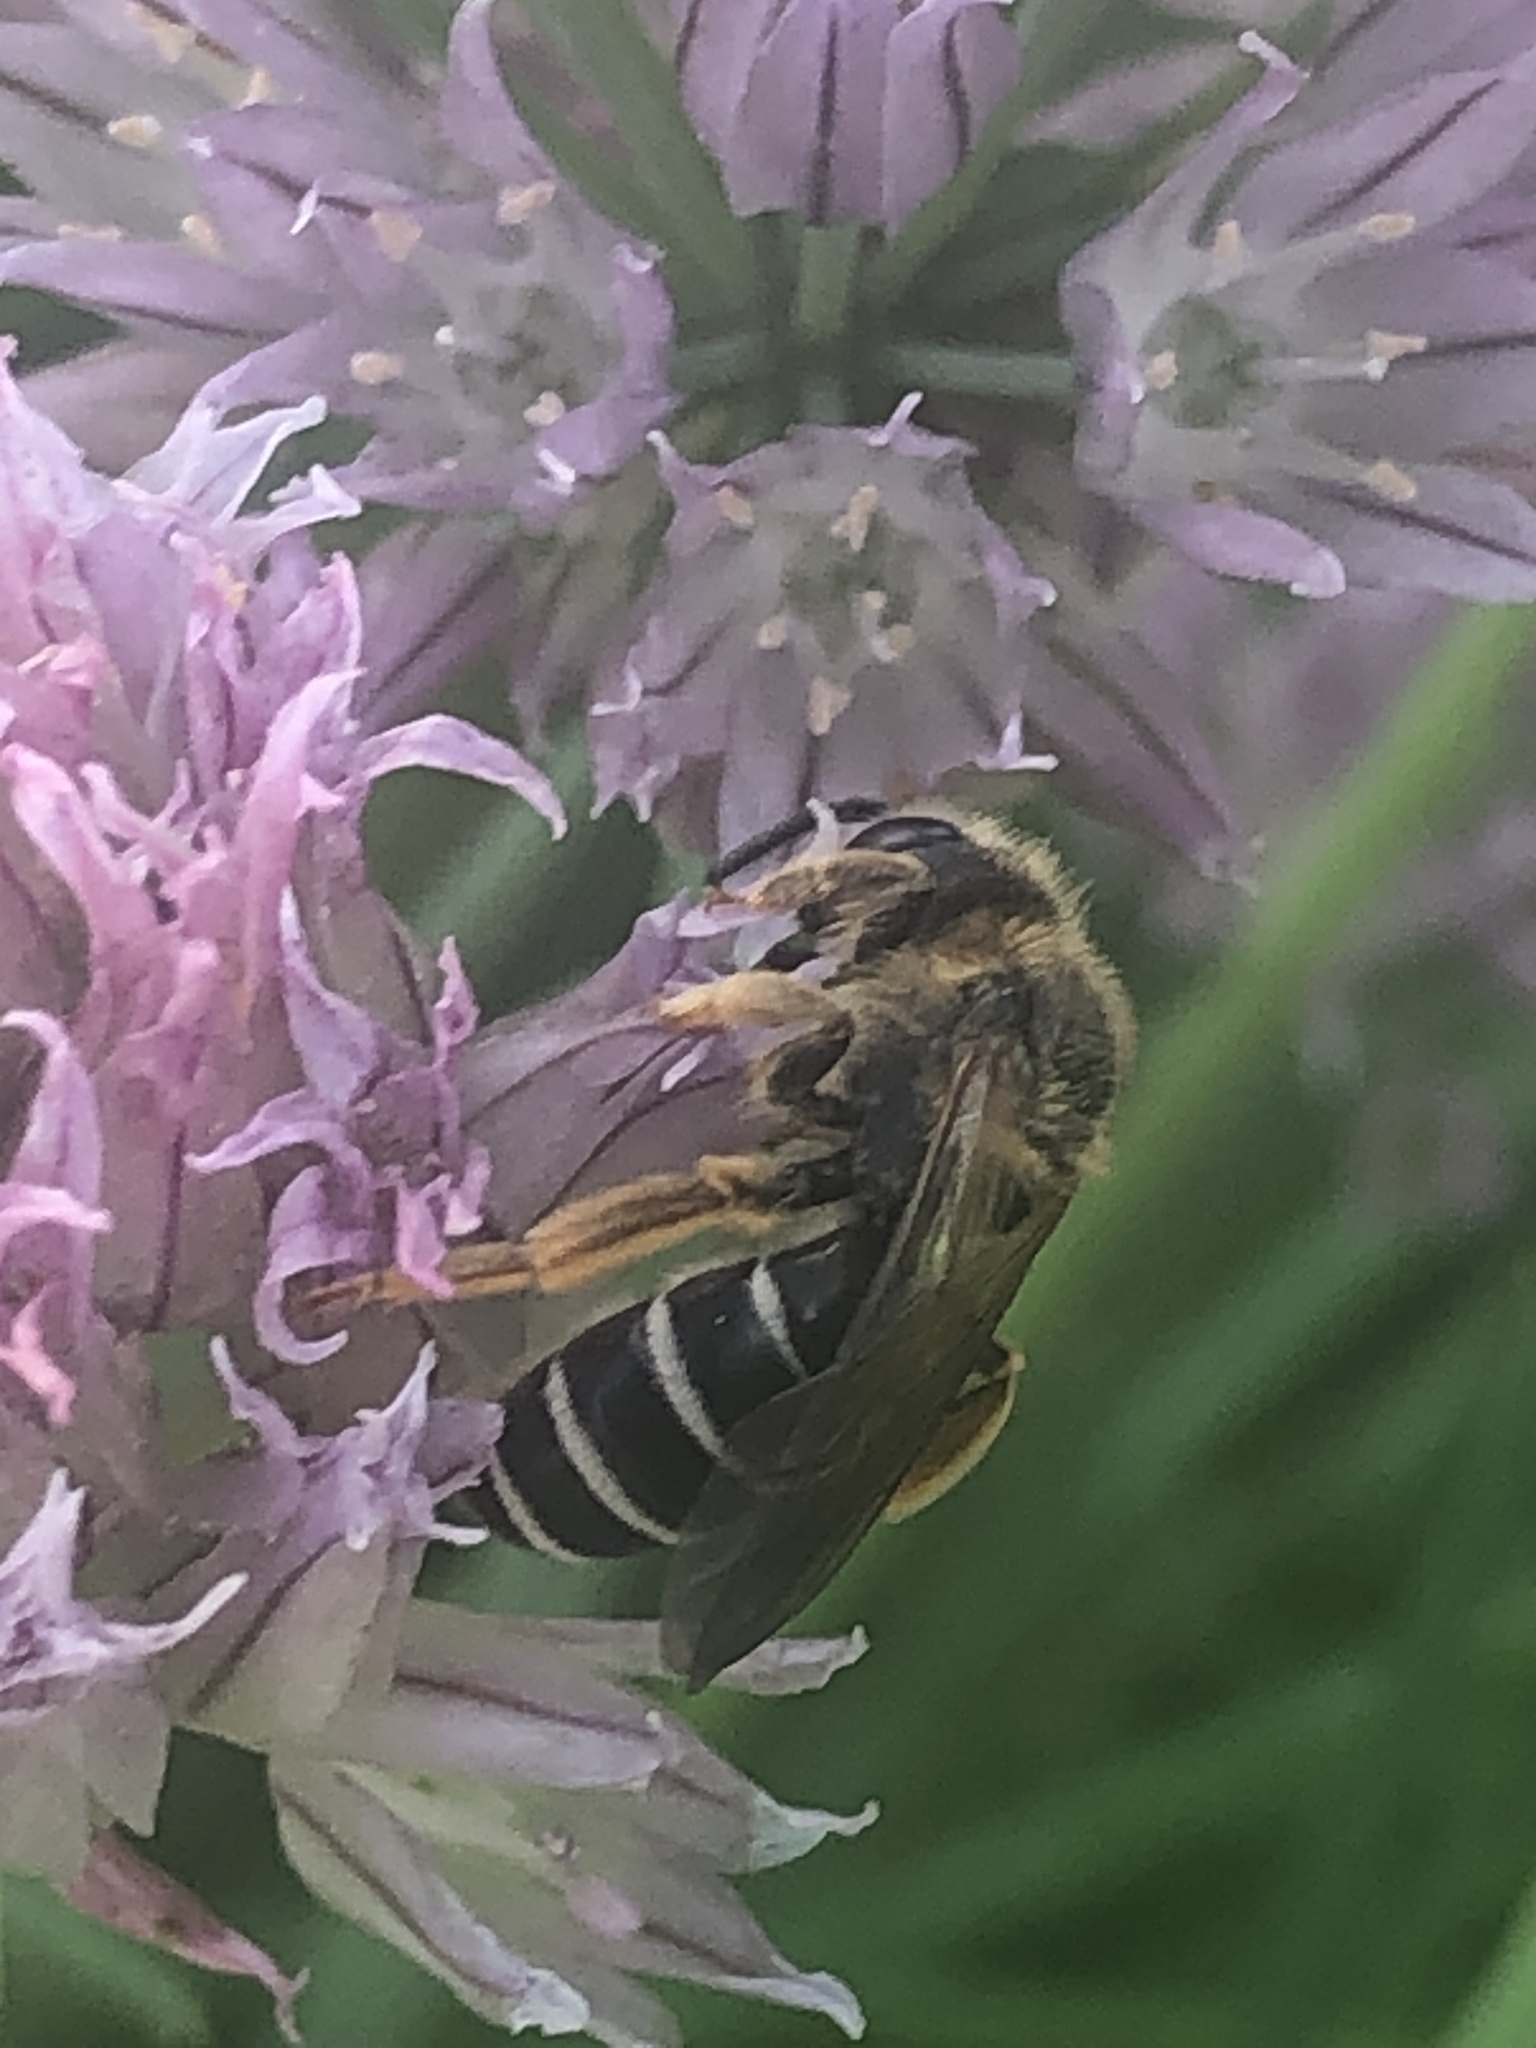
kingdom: Animalia
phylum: Arthropoda
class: Insecta
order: Hymenoptera
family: Halictidae
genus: Halictus
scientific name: Halictus rubicundus
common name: Orange-legged furrow bee
